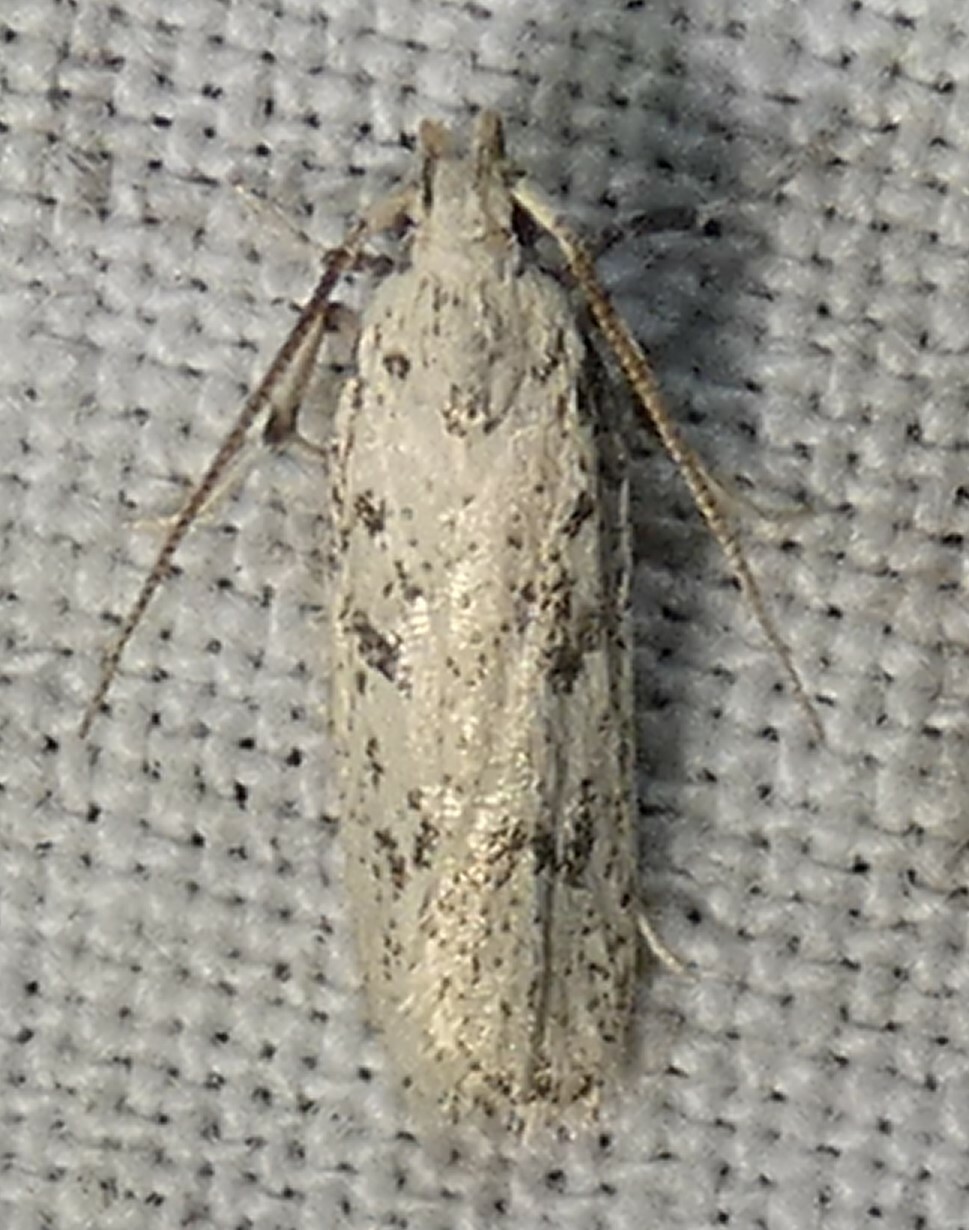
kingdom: Animalia
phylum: Arthropoda
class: Insecta
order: Lepidoptera
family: Autostichidae
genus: Glyphidocera
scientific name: Glyphidocera lactiflosella
